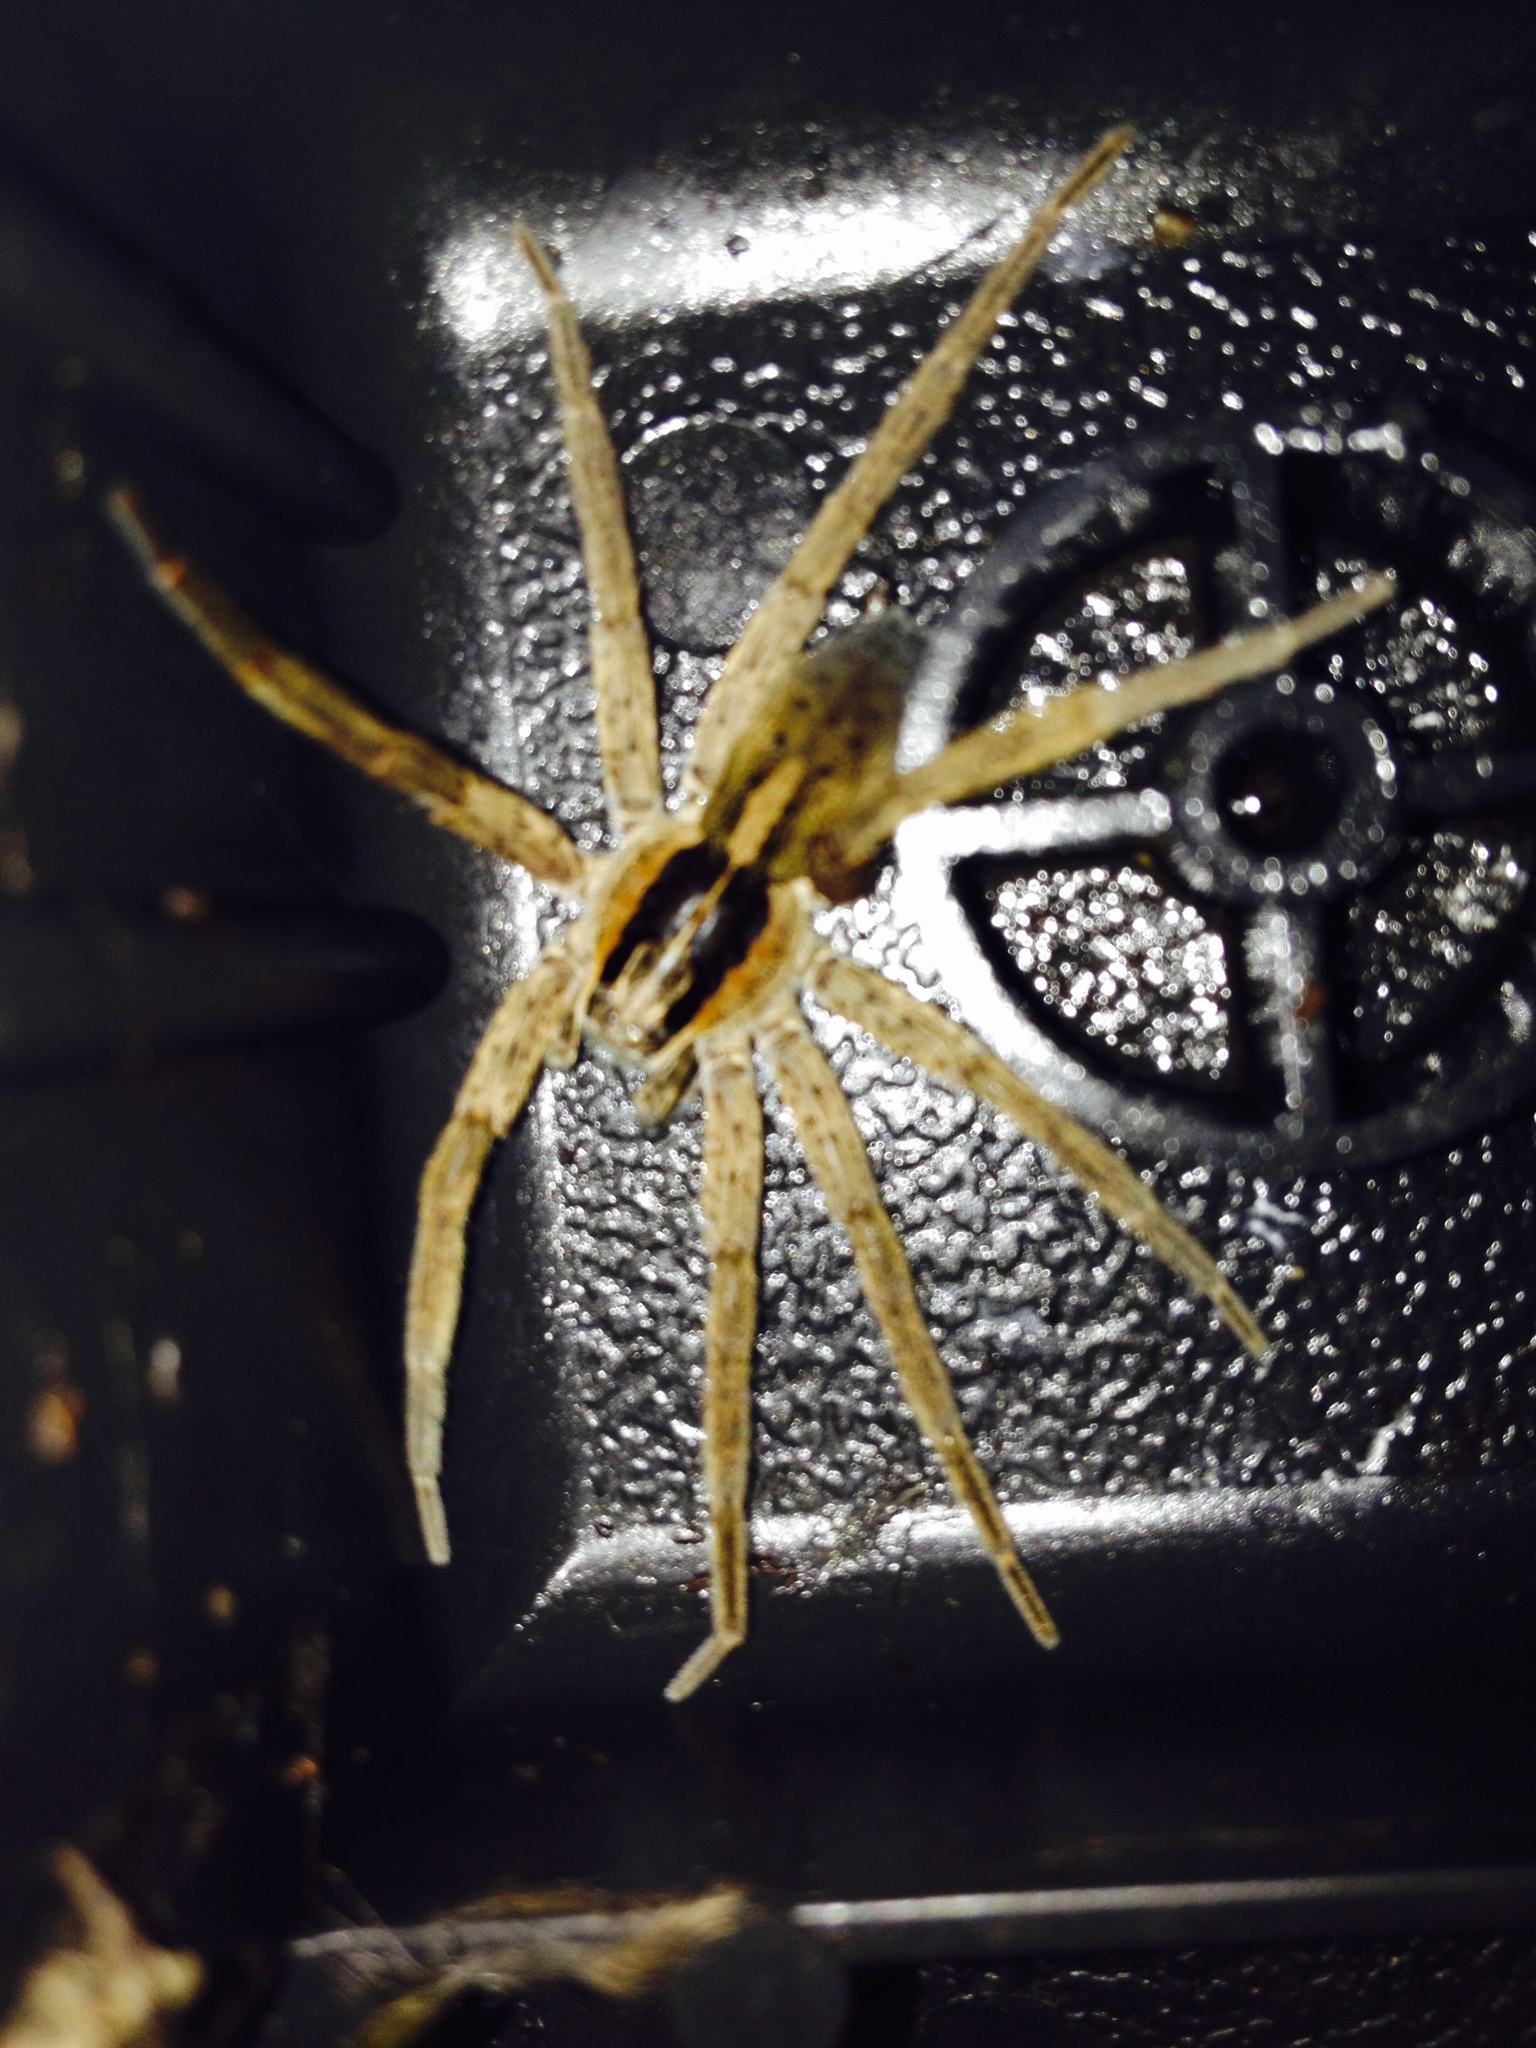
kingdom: Animalia
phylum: Arthropoda
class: Arachnida
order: Araneae
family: Pisauridae
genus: Dolomedes
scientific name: Dolomedes minor
